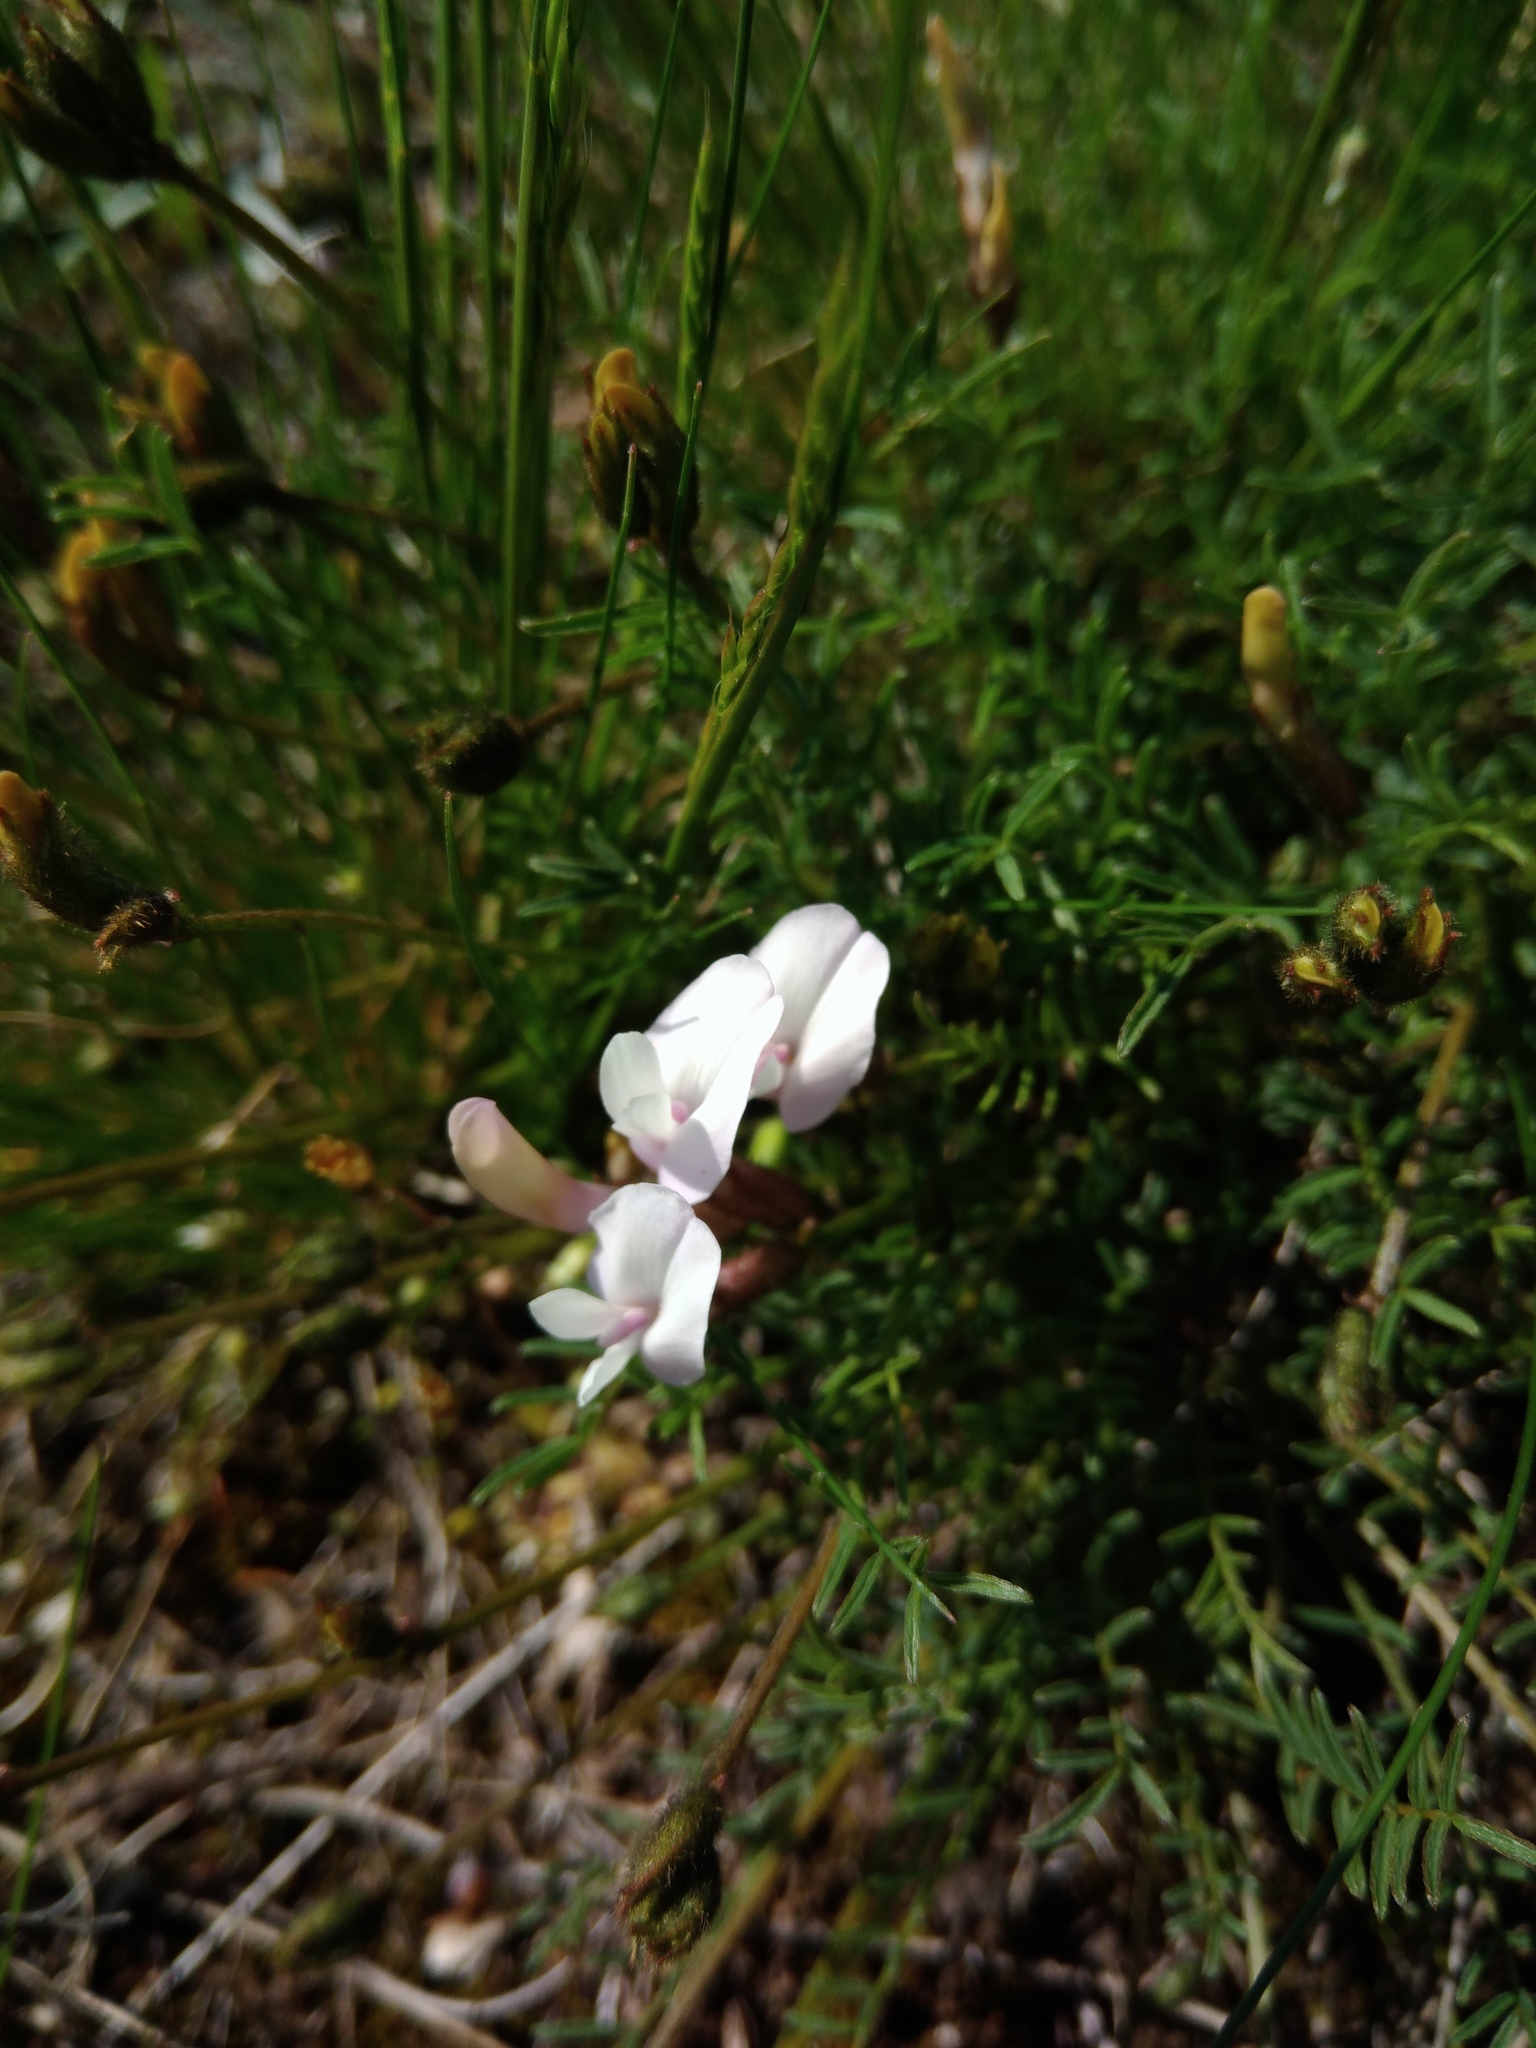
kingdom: Plantae
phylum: Tracheophyta
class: Magnoliopsida
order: Fabales
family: Fabaceae
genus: Astragalus
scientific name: Astragalus corniculatus
